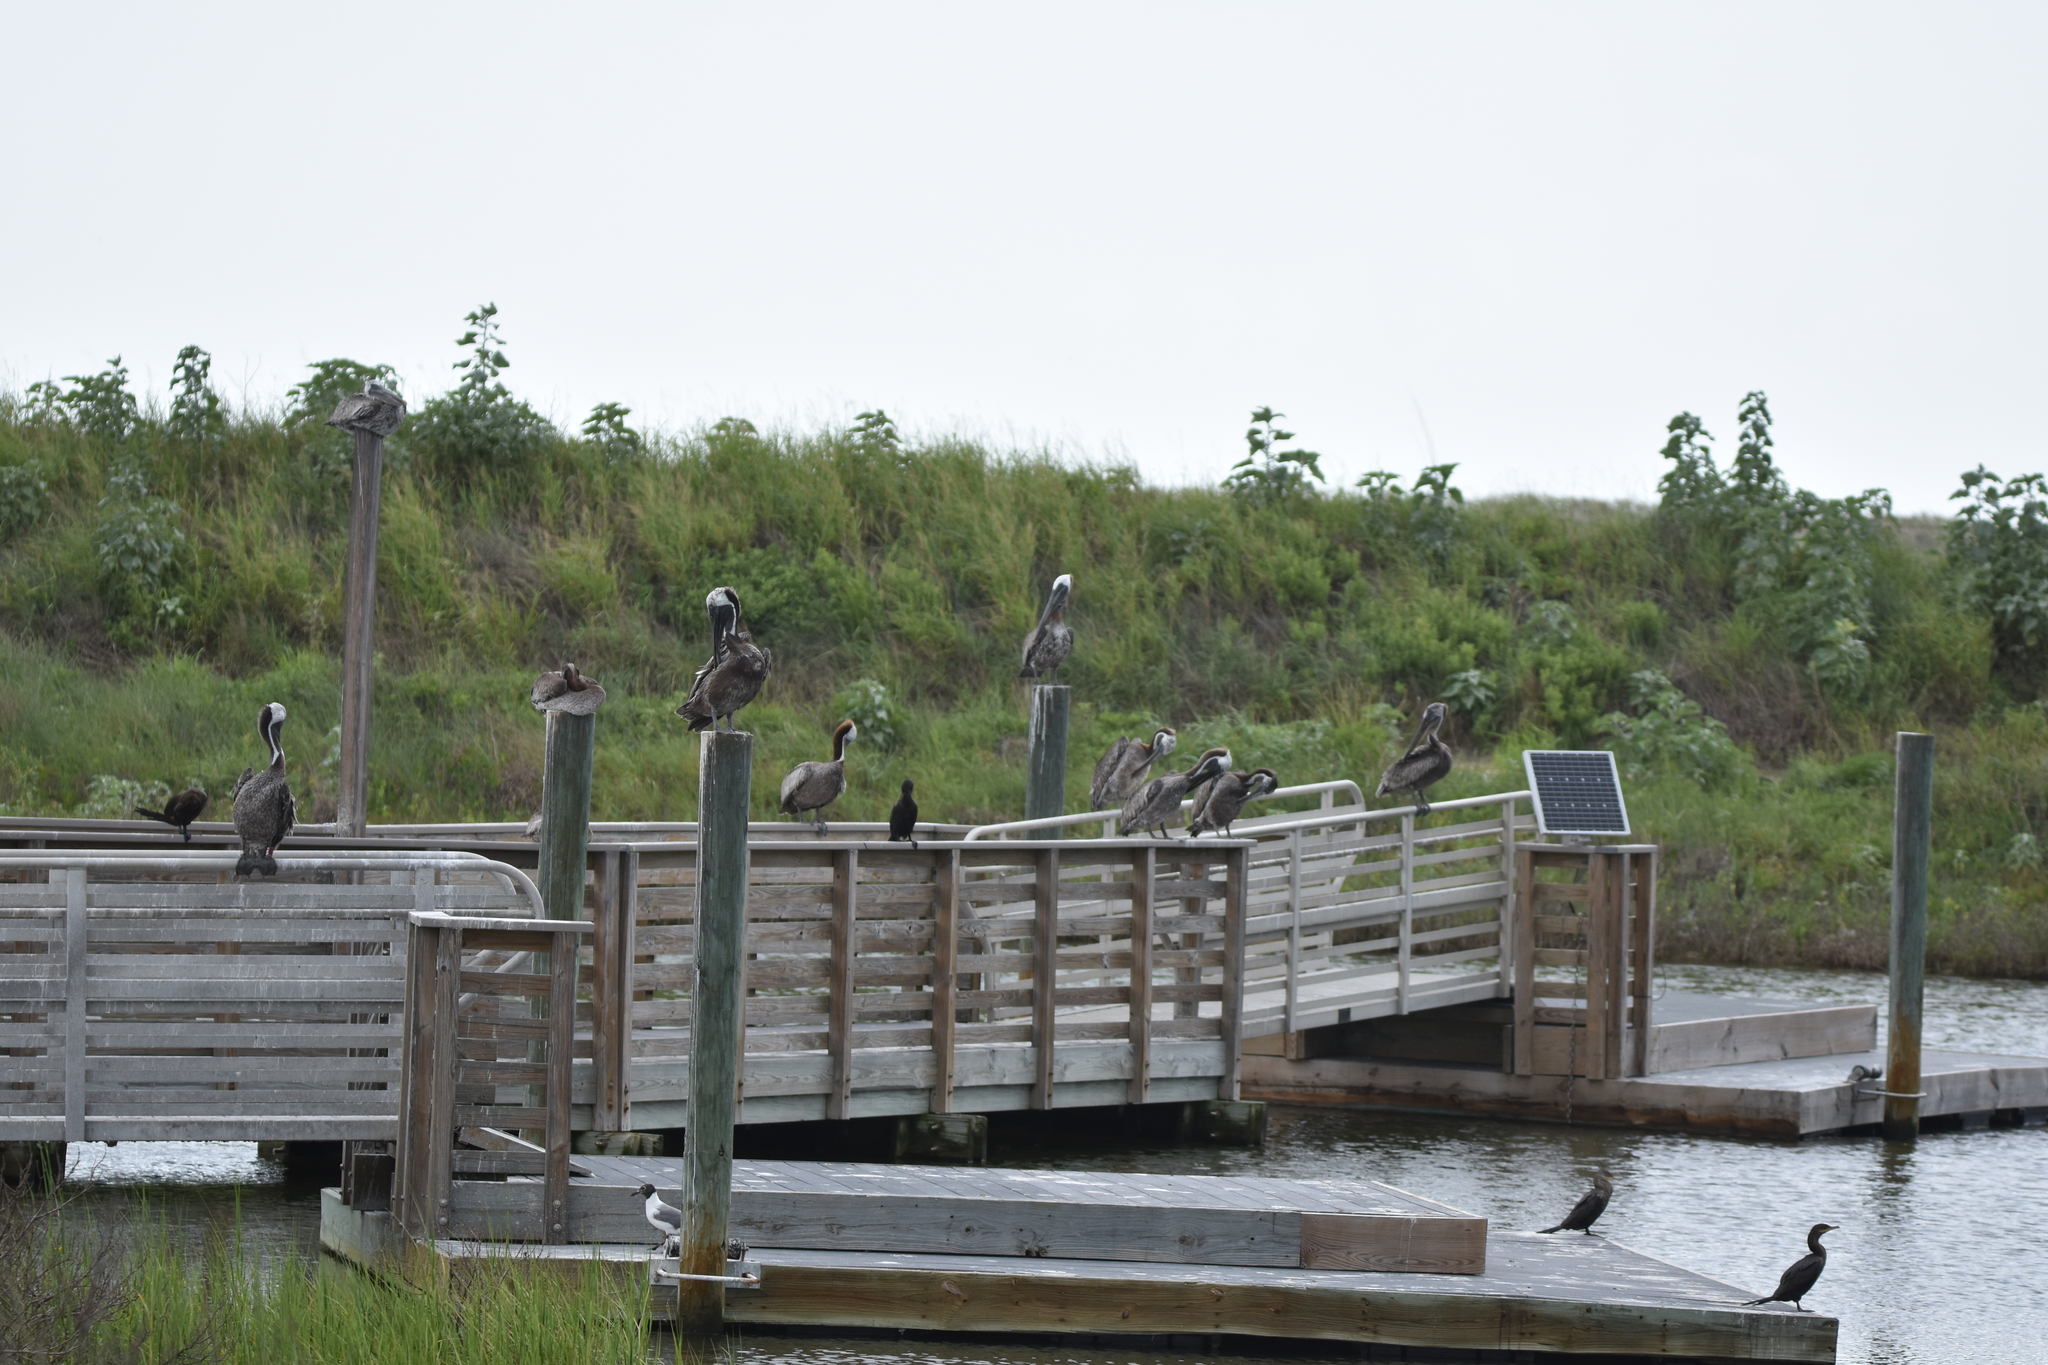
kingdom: Animalia
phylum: Chordata
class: Aves
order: Pelecaniformes
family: Pelecanidae
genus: Pelecanus
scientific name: Pelecanus occidentalis
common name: Brown pelican
